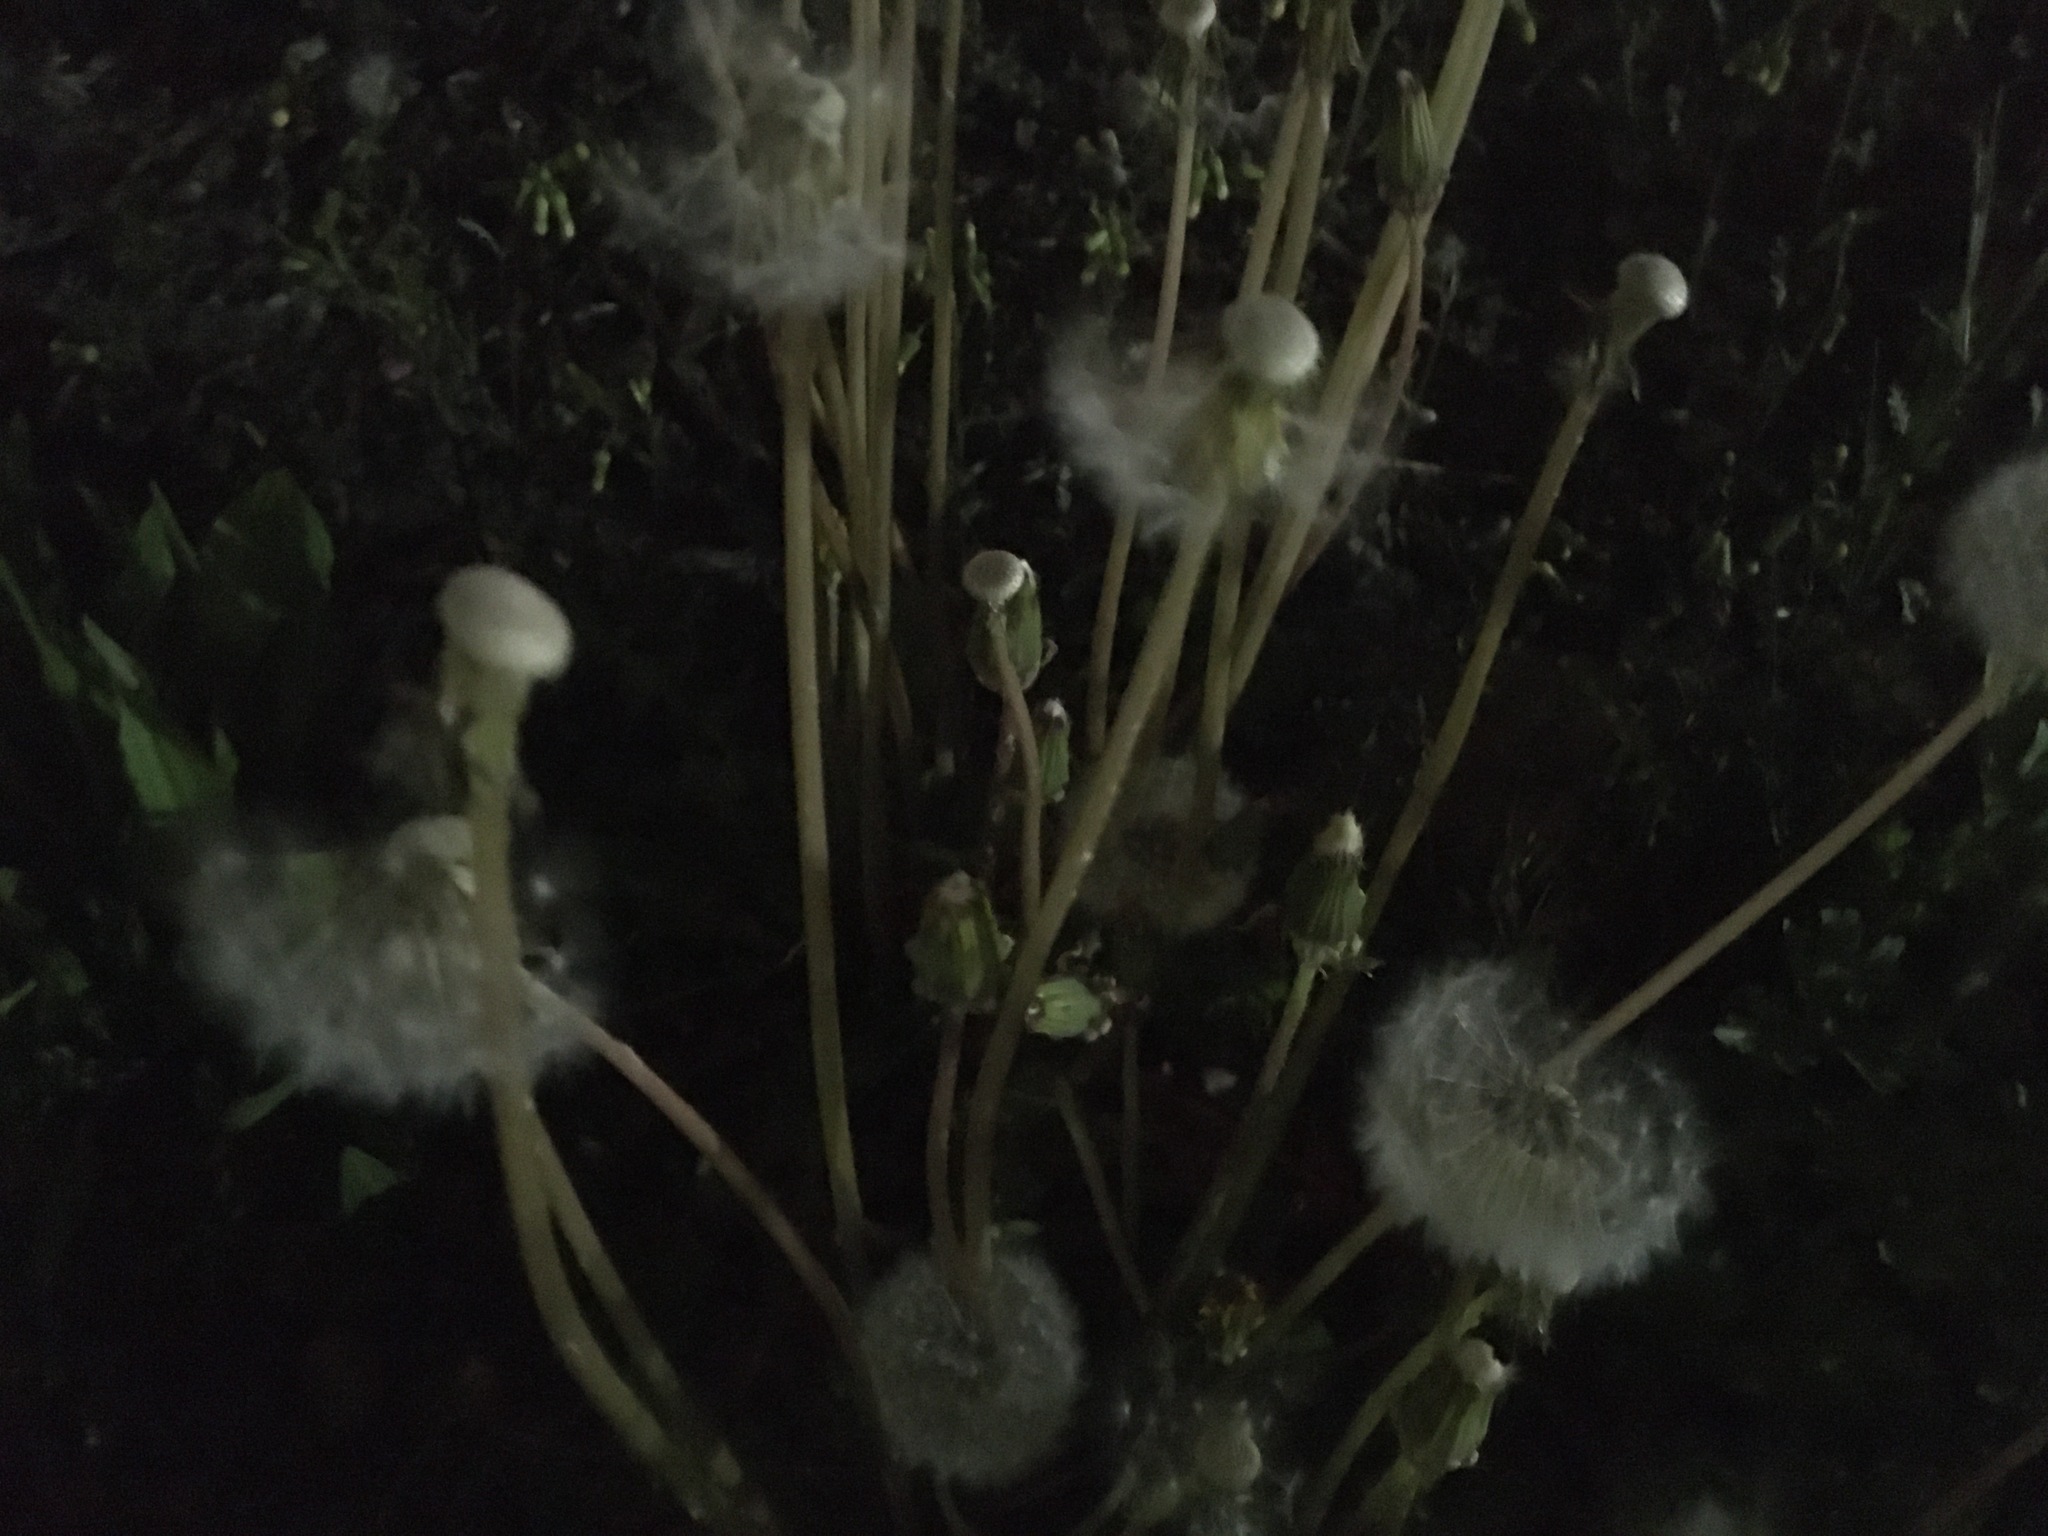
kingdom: Plantae
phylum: Tracheophyta
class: Magnoliopsida
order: Asterales
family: Asteraceae
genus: Taraxacum
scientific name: Taraxacum officinale
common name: Common dandelion
